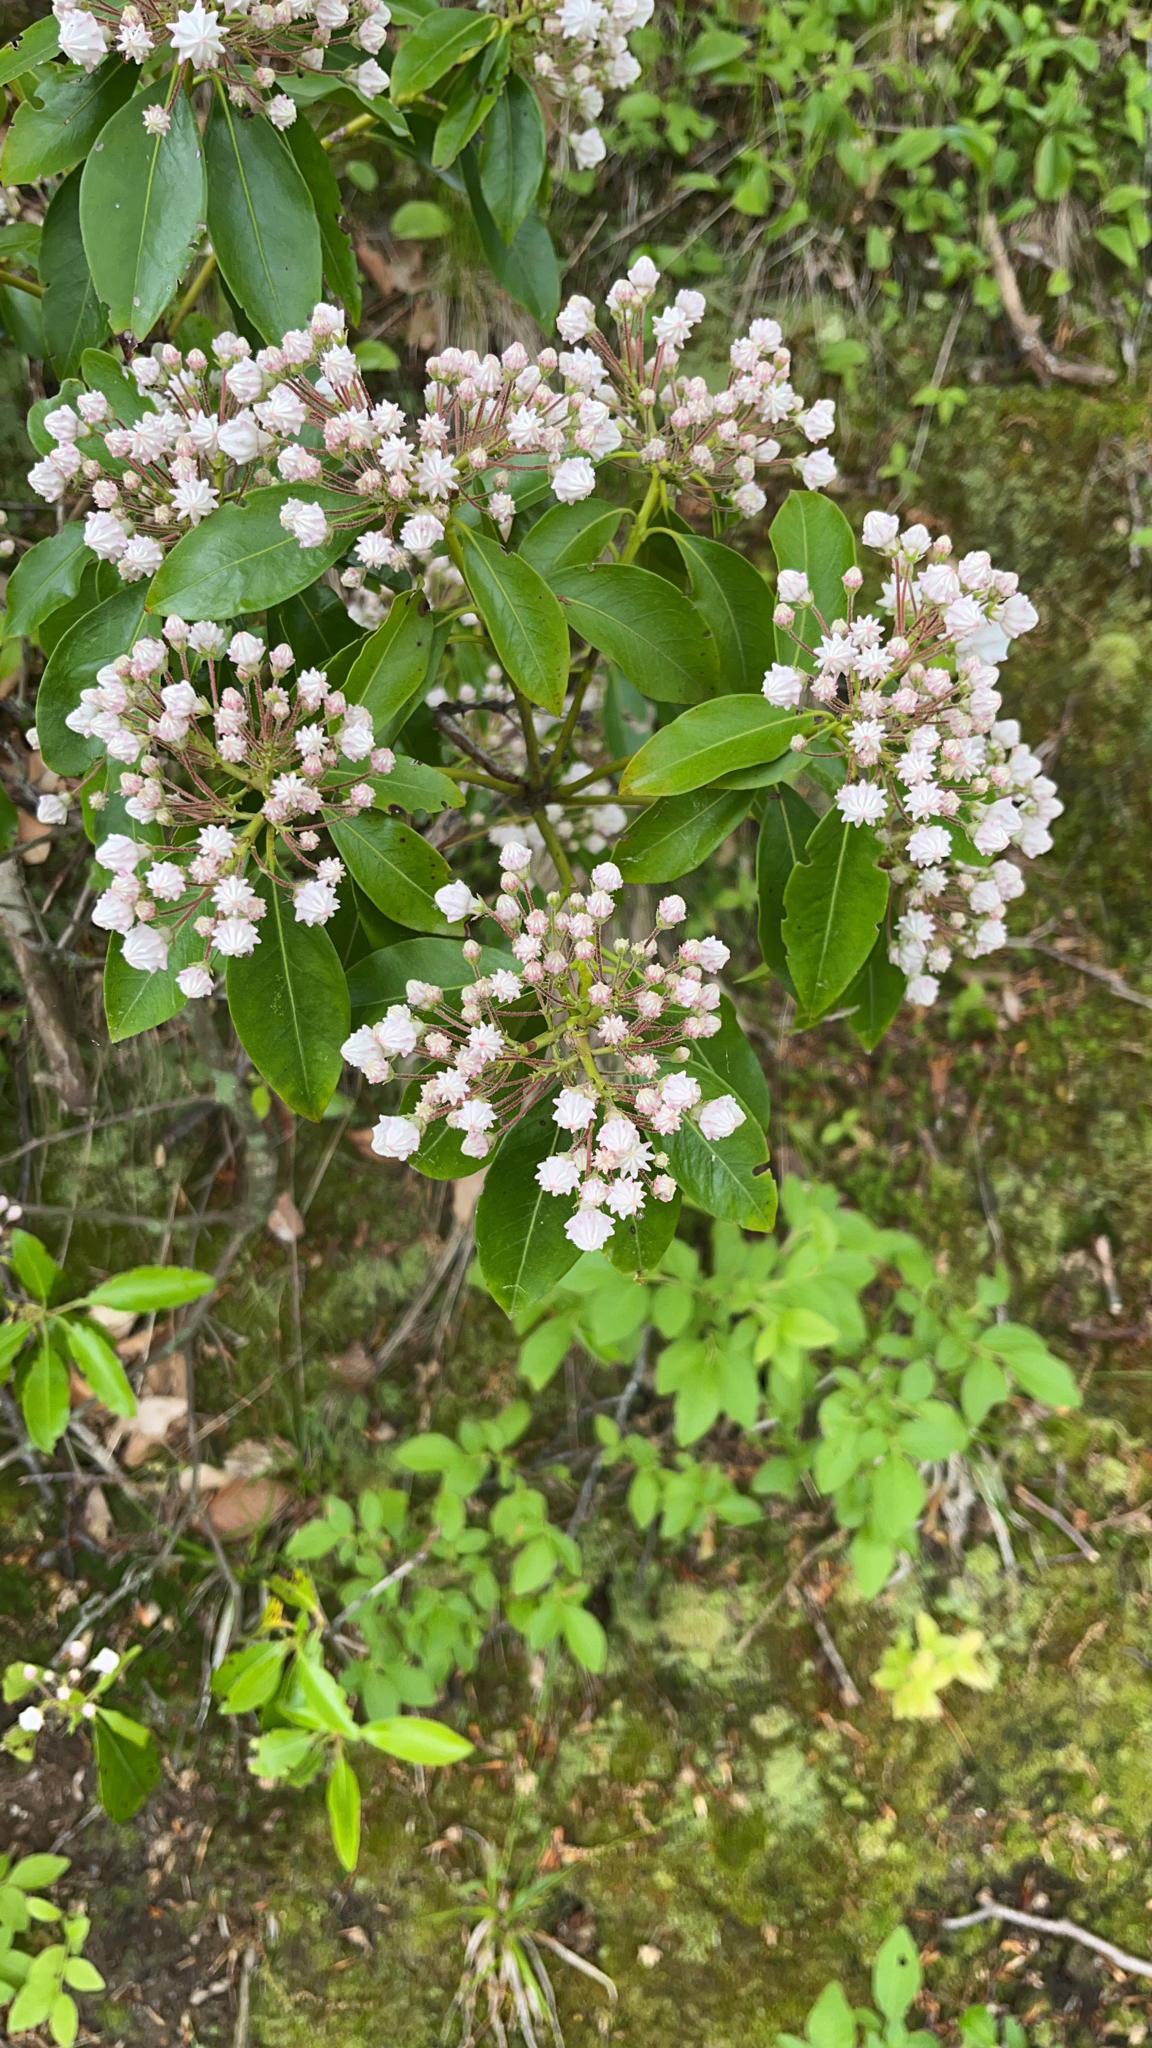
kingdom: Plantae
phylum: Tracheophyta
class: Magnoliopsida
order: Ericales
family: Ericaceae
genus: Kalmia
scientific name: Kalmia latifolia
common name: Mountain-laurel
